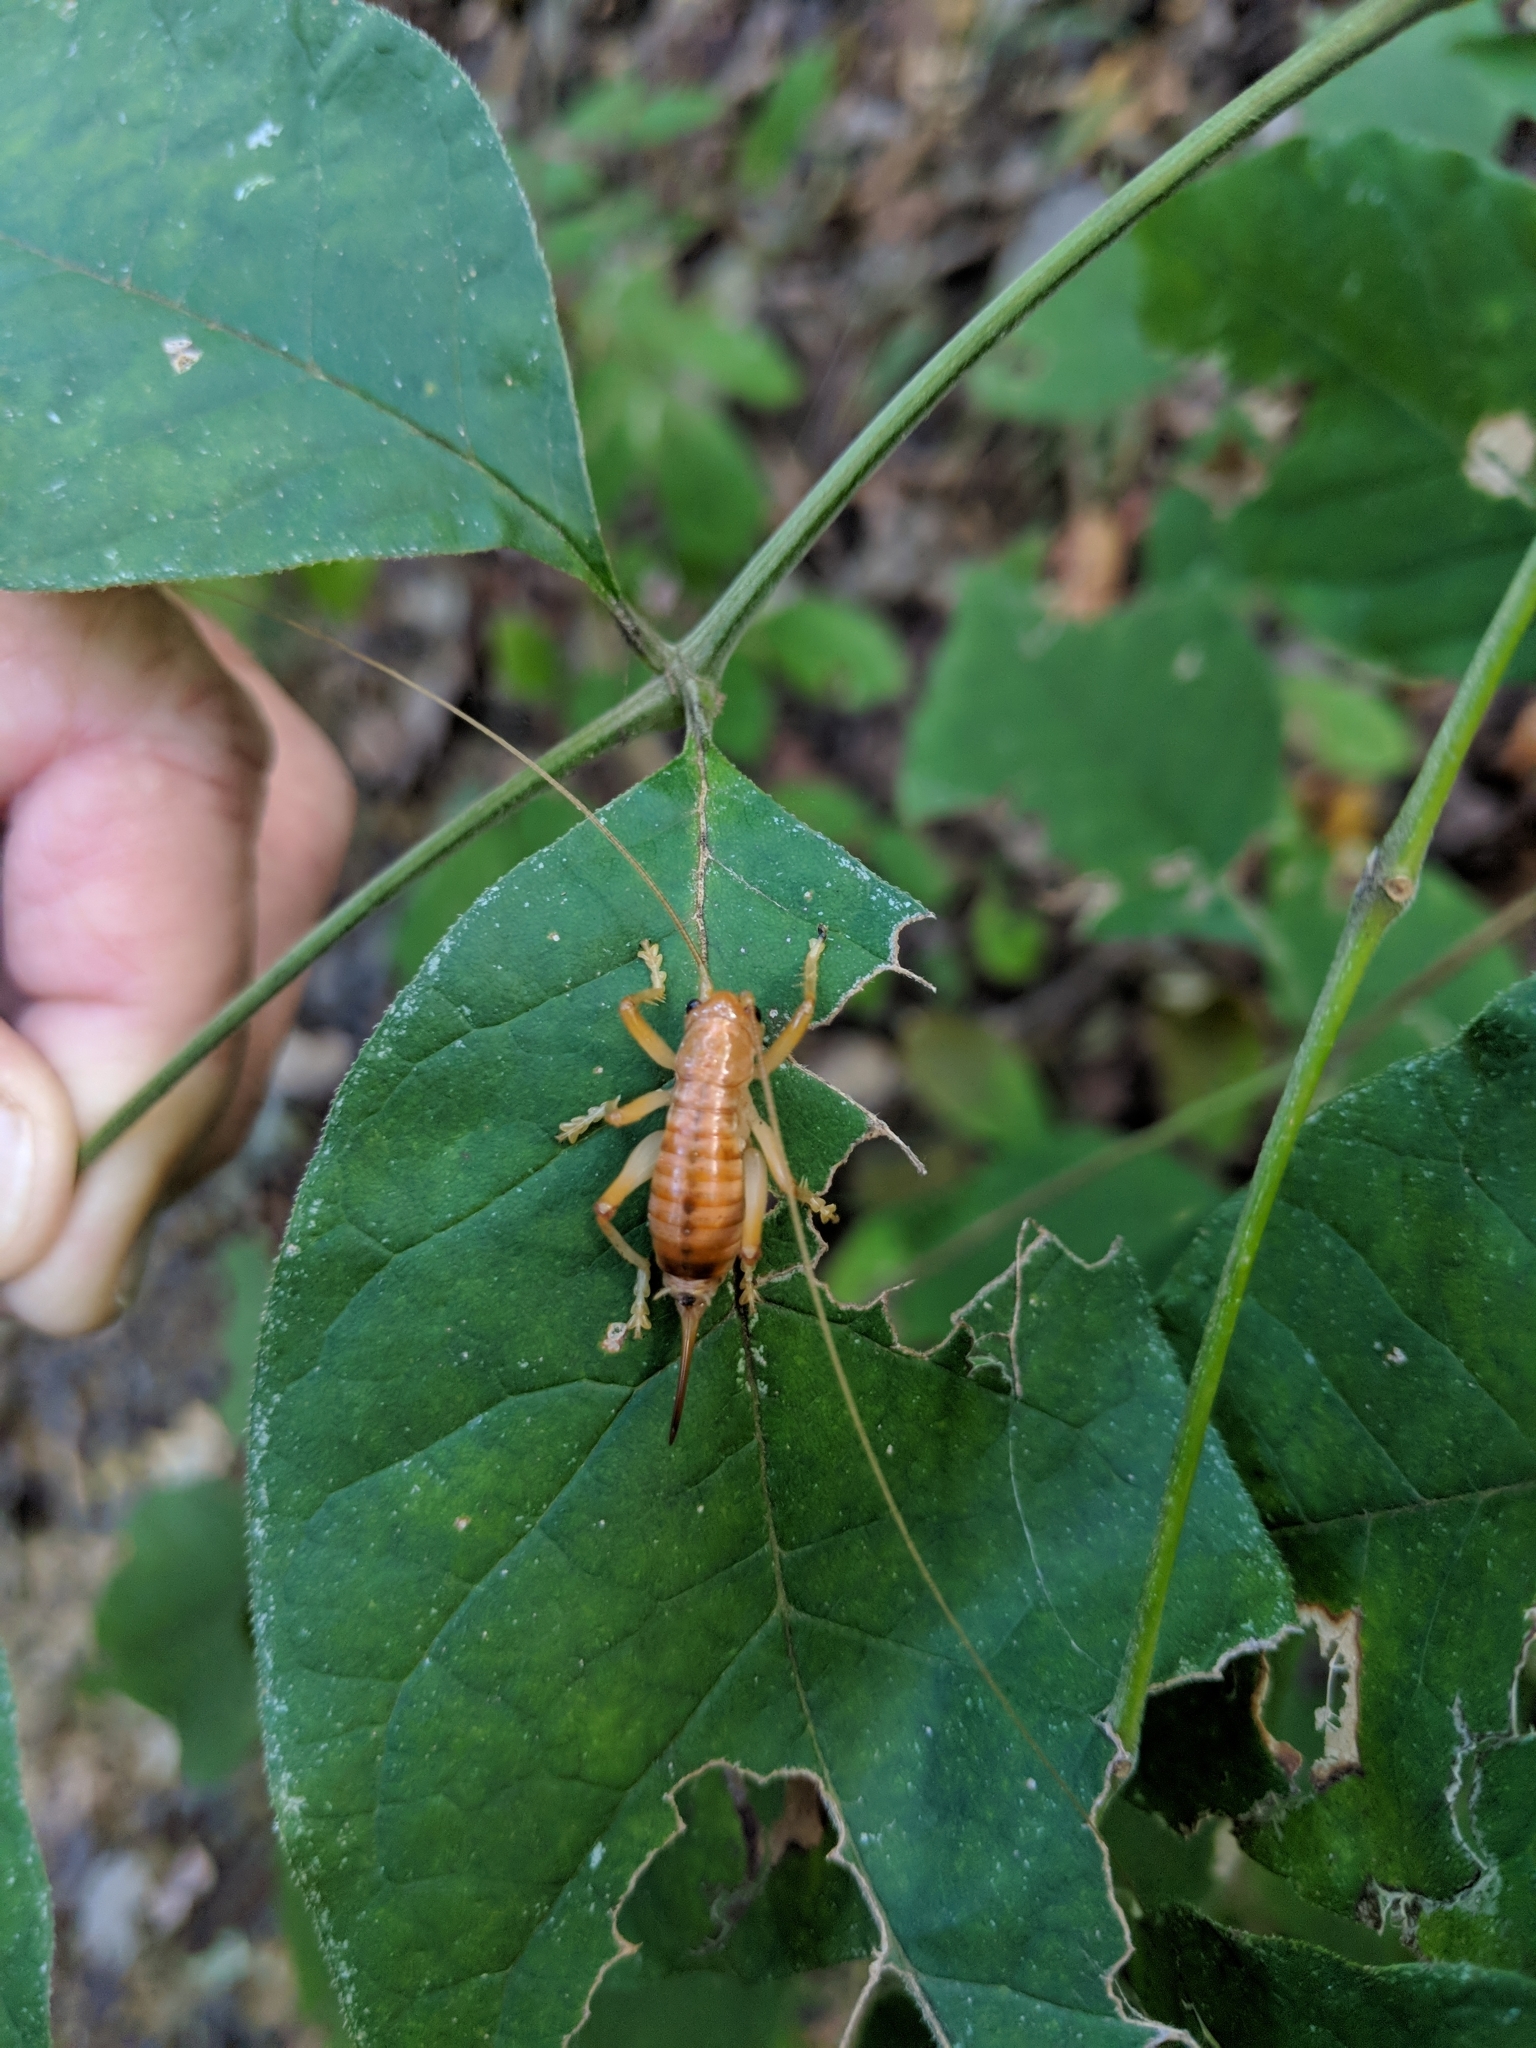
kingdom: Animalia
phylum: Arthropoda
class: Insecta
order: Orthoptera
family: Gryllacrididae
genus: Camptonotus
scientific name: Camptonotus carolinensis
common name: Carolina leaf-roller
